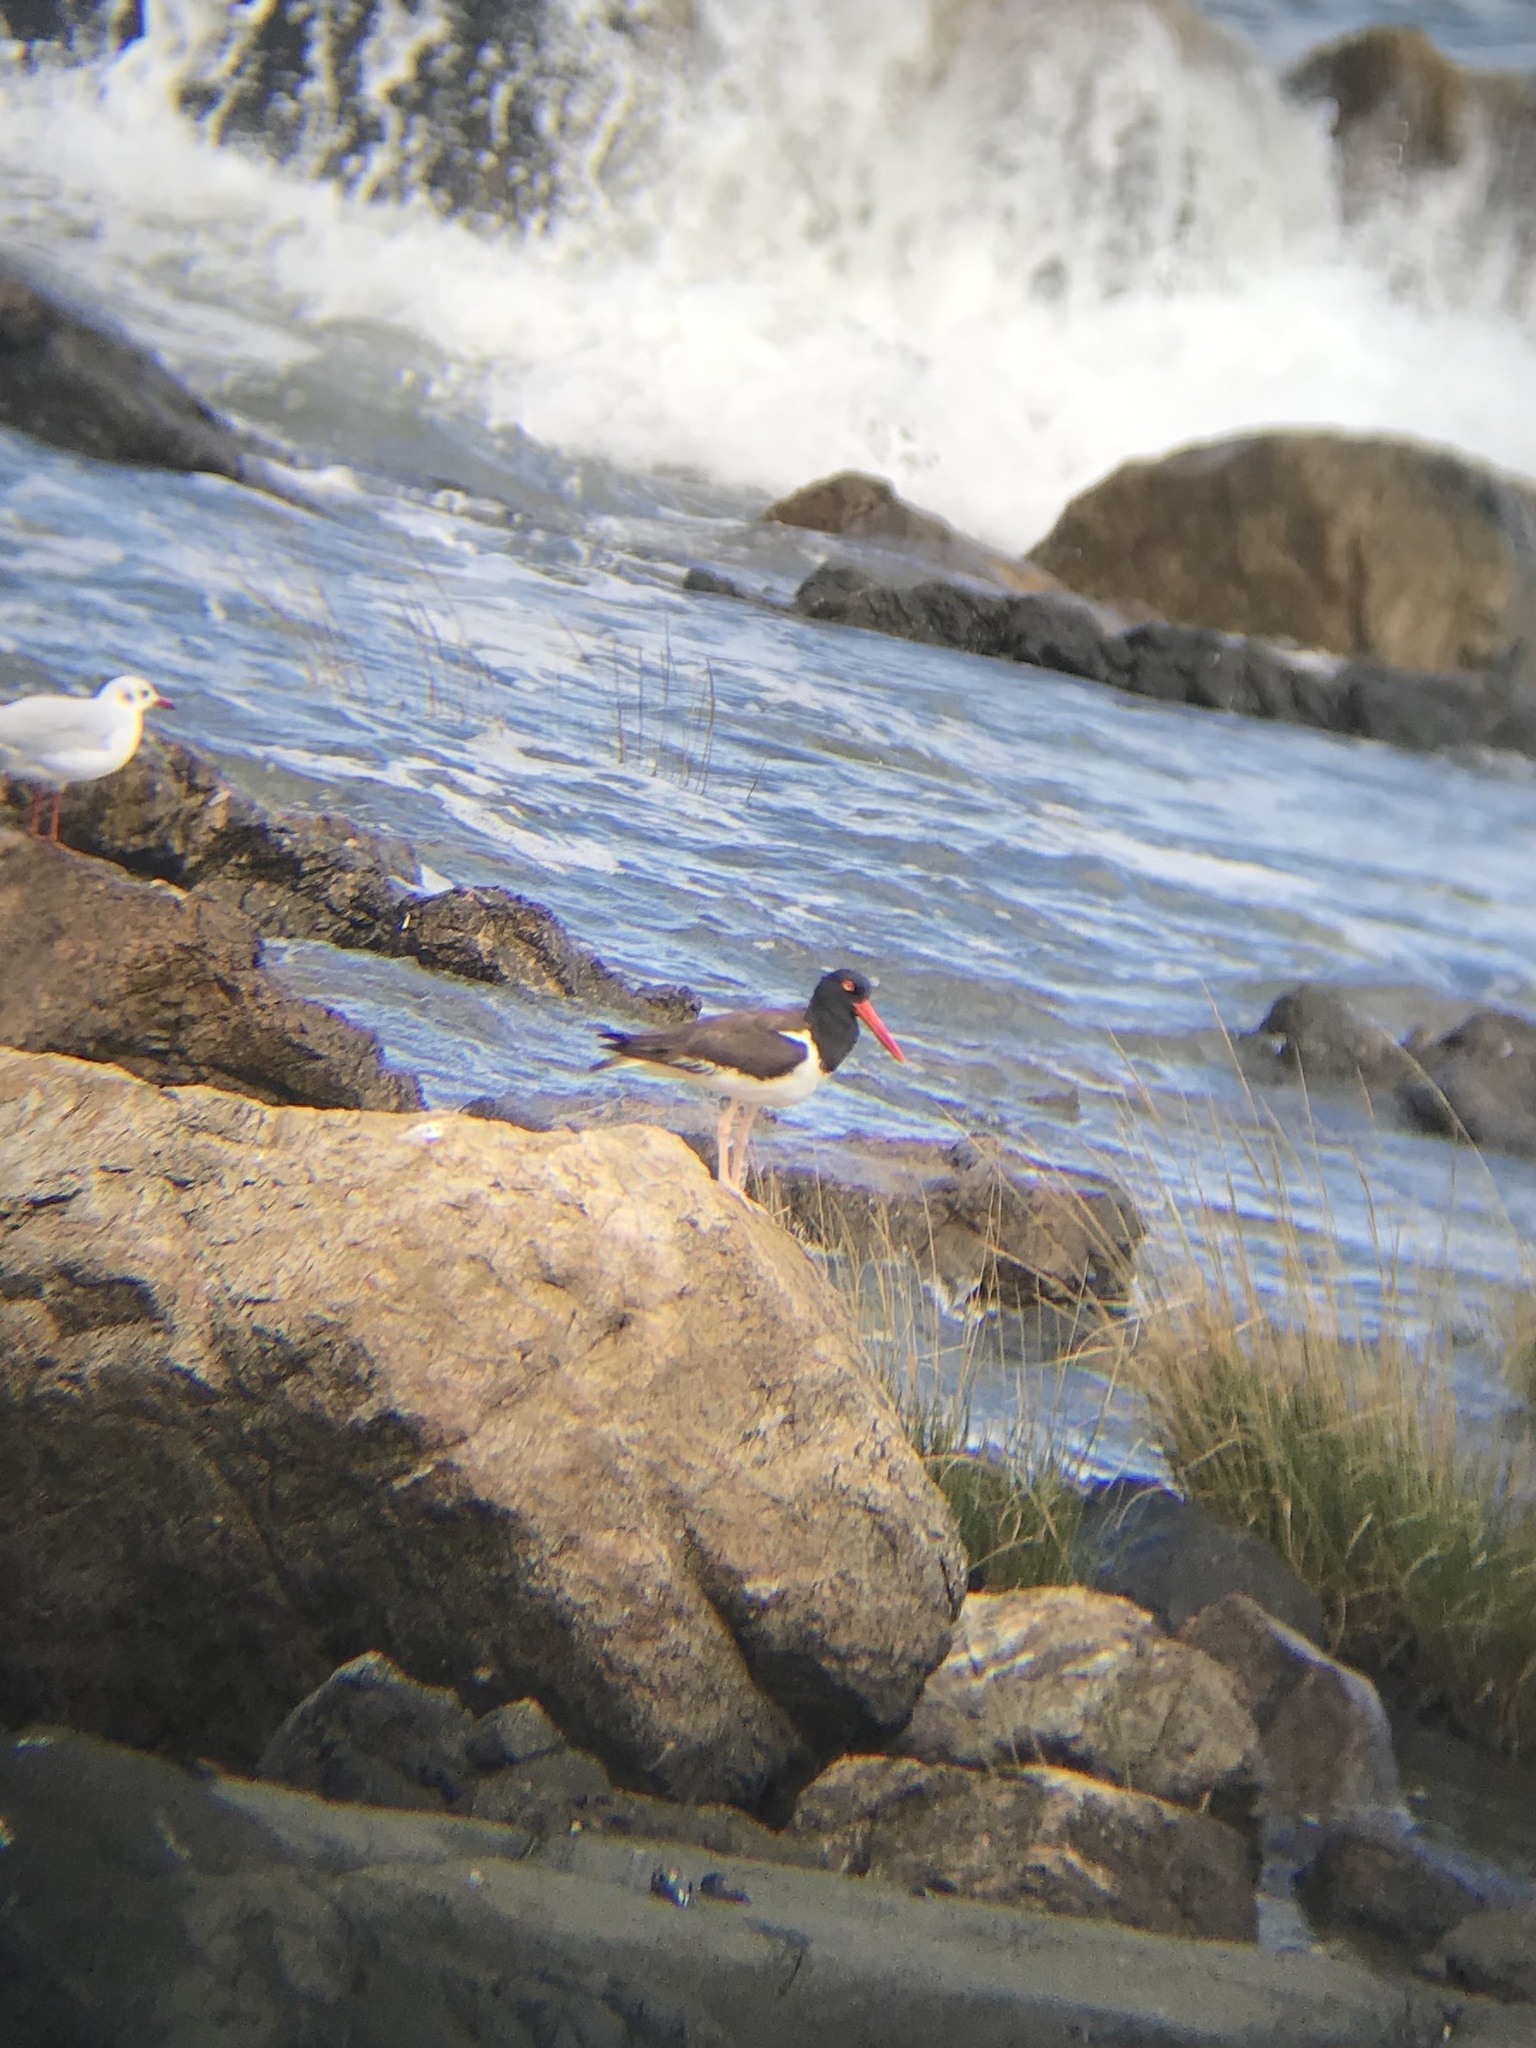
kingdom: Animalia
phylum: Chordata
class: Aves
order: Charadriiformes
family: Haematopodidae
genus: Haematopus
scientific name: Haematopus palliatus
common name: American oystercatcher
